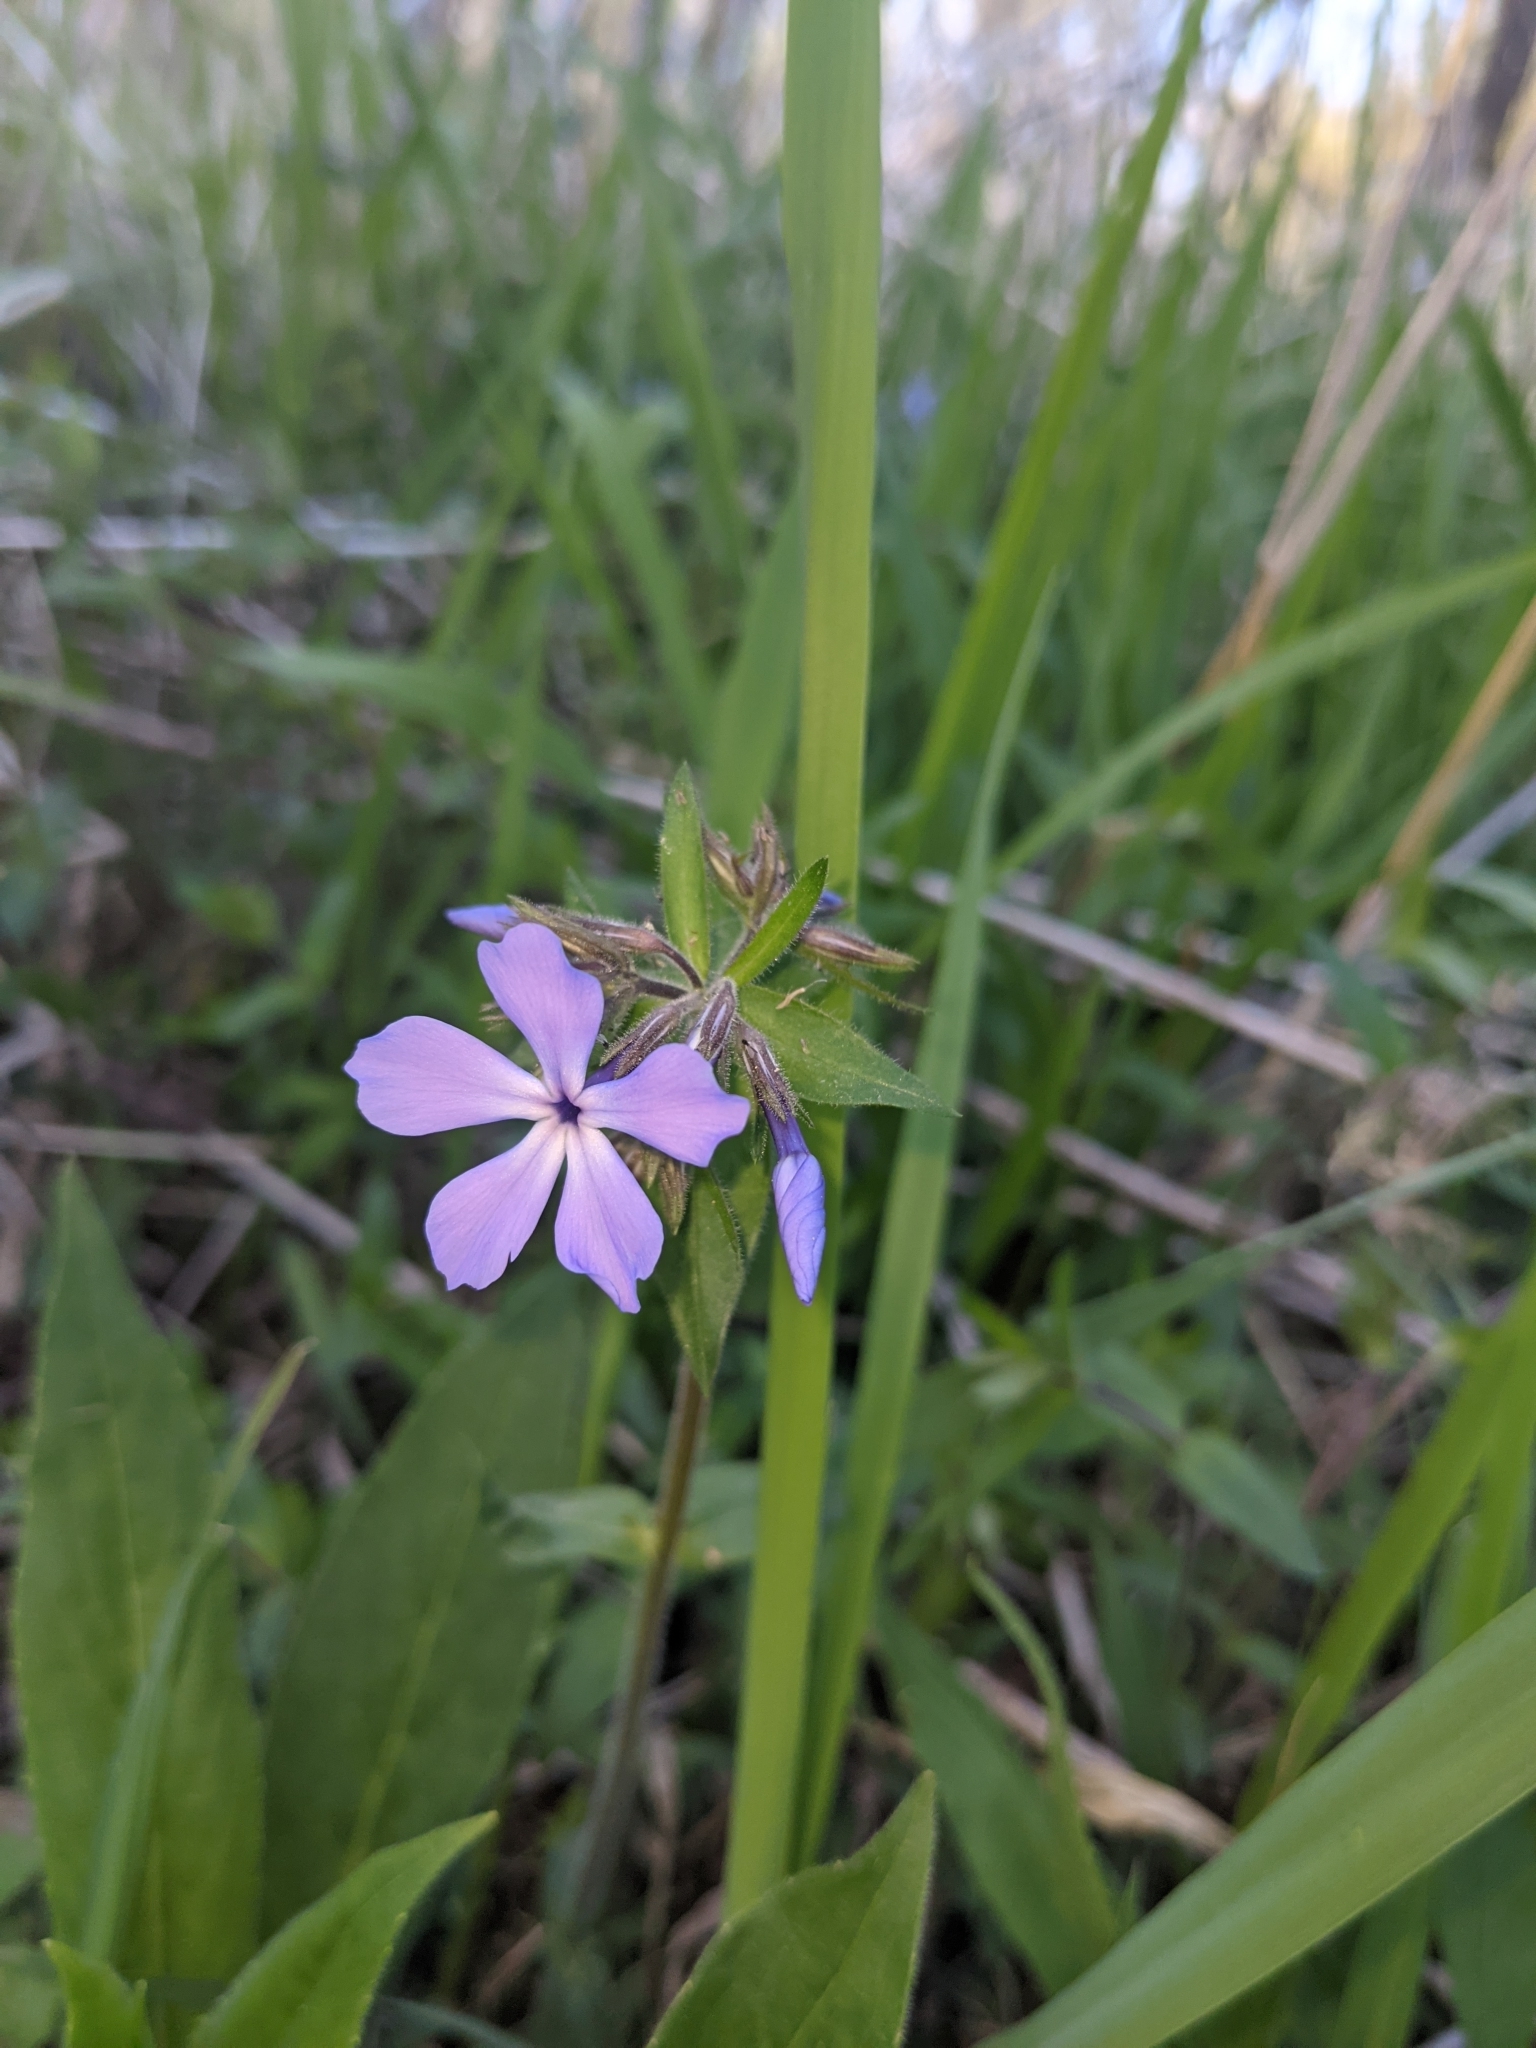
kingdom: Plantae
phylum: Tracheophyta
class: Magnoliopsida
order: Ericales
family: Polemoniaceae
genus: Phlox
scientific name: Phlox divaricata
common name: Blue phlox
